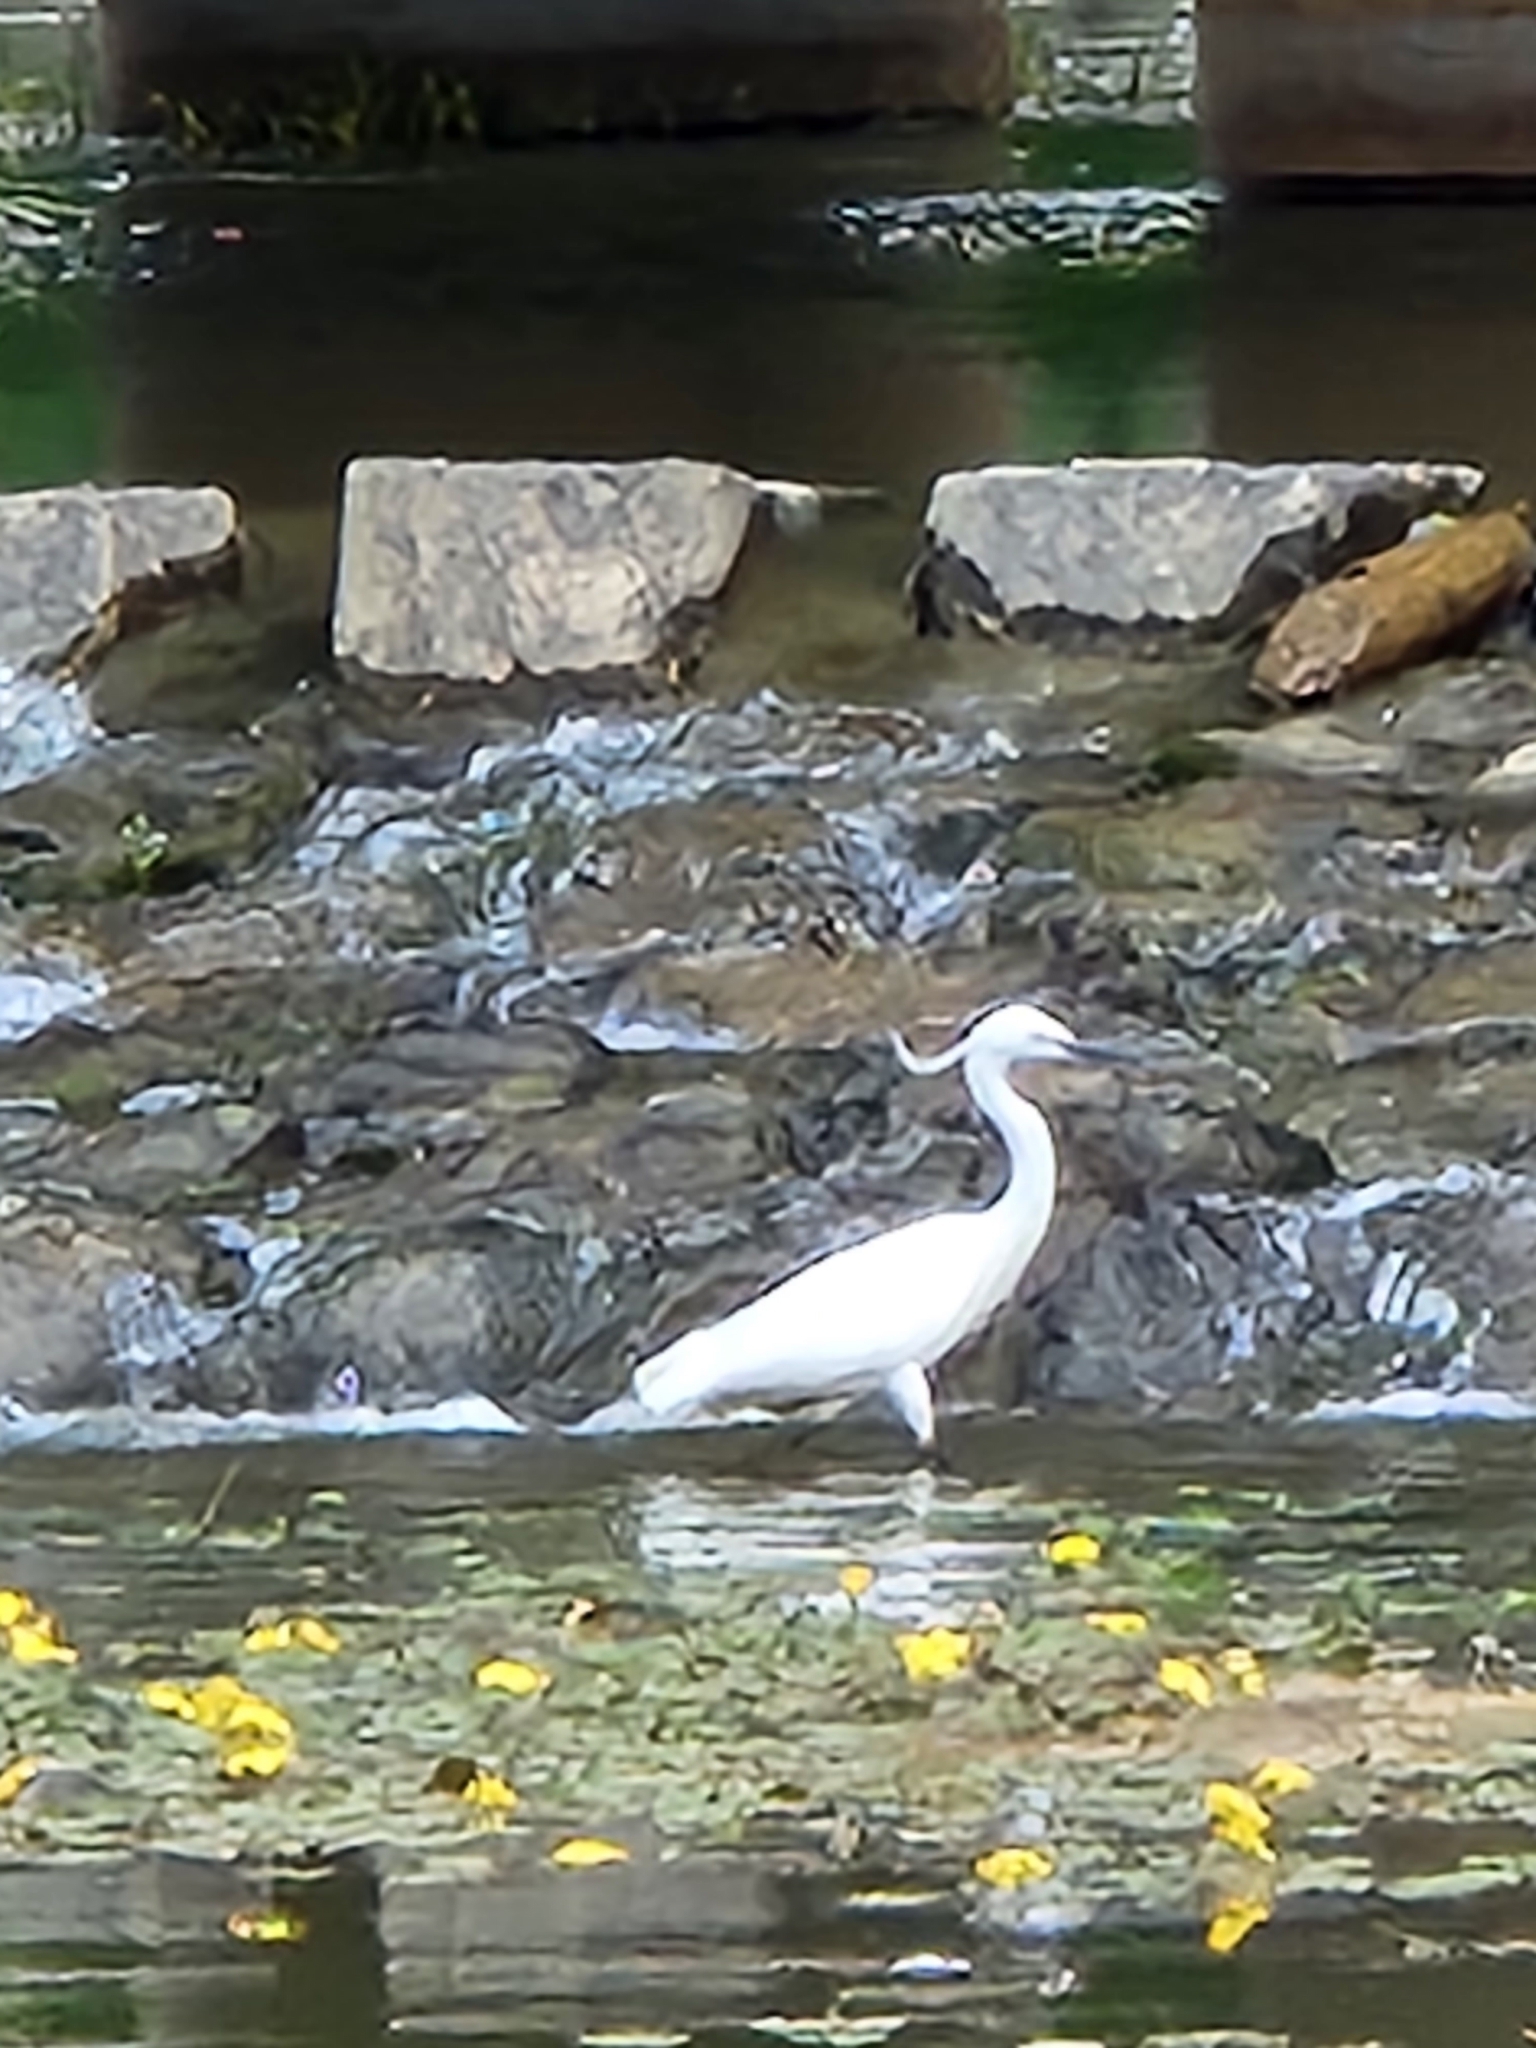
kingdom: Animalia
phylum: Chordata
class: Aves
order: Pelecaniformes
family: Ardeidae
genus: Egretta
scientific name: Egretta garzetta
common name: Little egret
